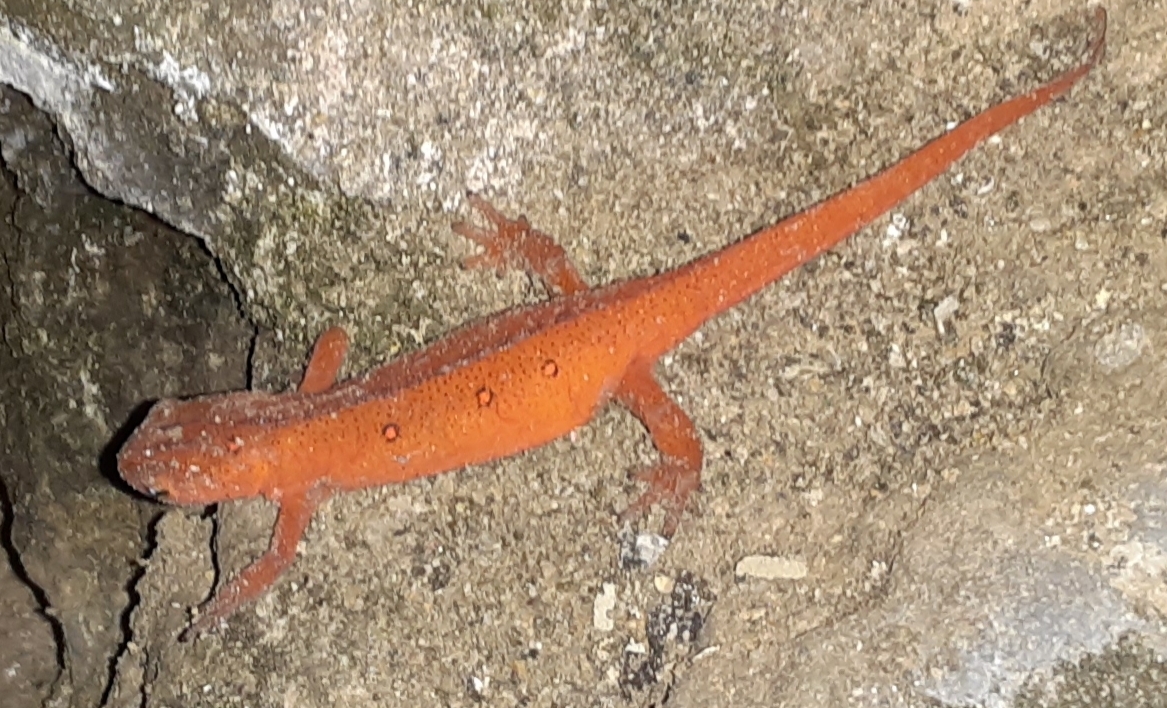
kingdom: Animalia
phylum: Chordata
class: Amphibia
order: Caudata
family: Salamandridae
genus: Notophthalmus
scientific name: Notophthalmus viridescens
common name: Eastern newt
